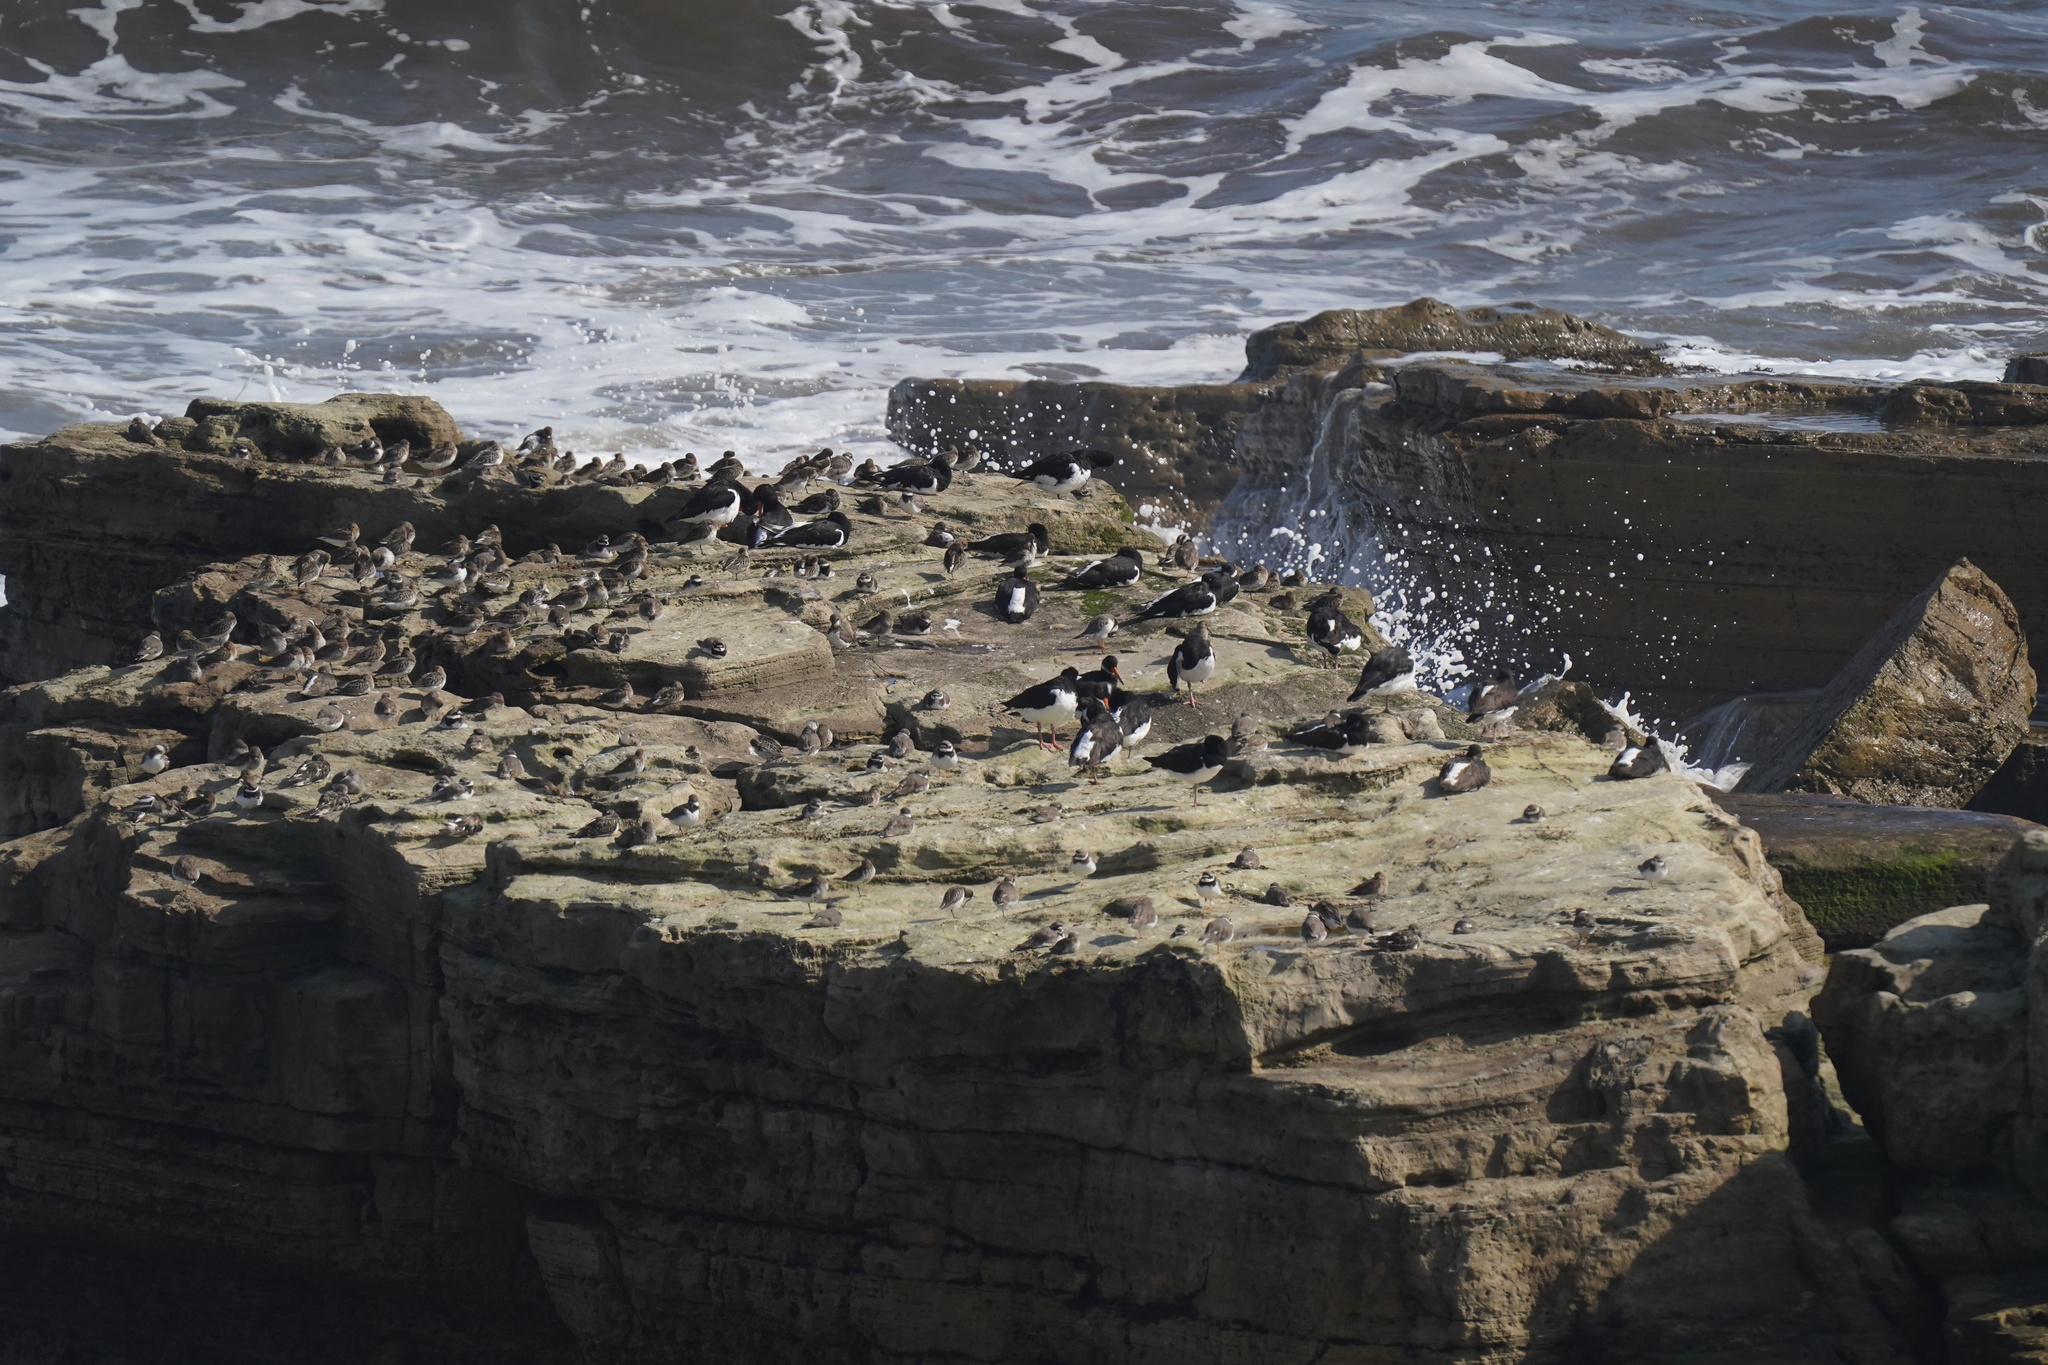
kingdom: Animalia
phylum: Chordata
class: Aves
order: Charadriiformes
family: Charadriidae
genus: Charadrius
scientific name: Charadrius hiaticula
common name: Common ringed plover
